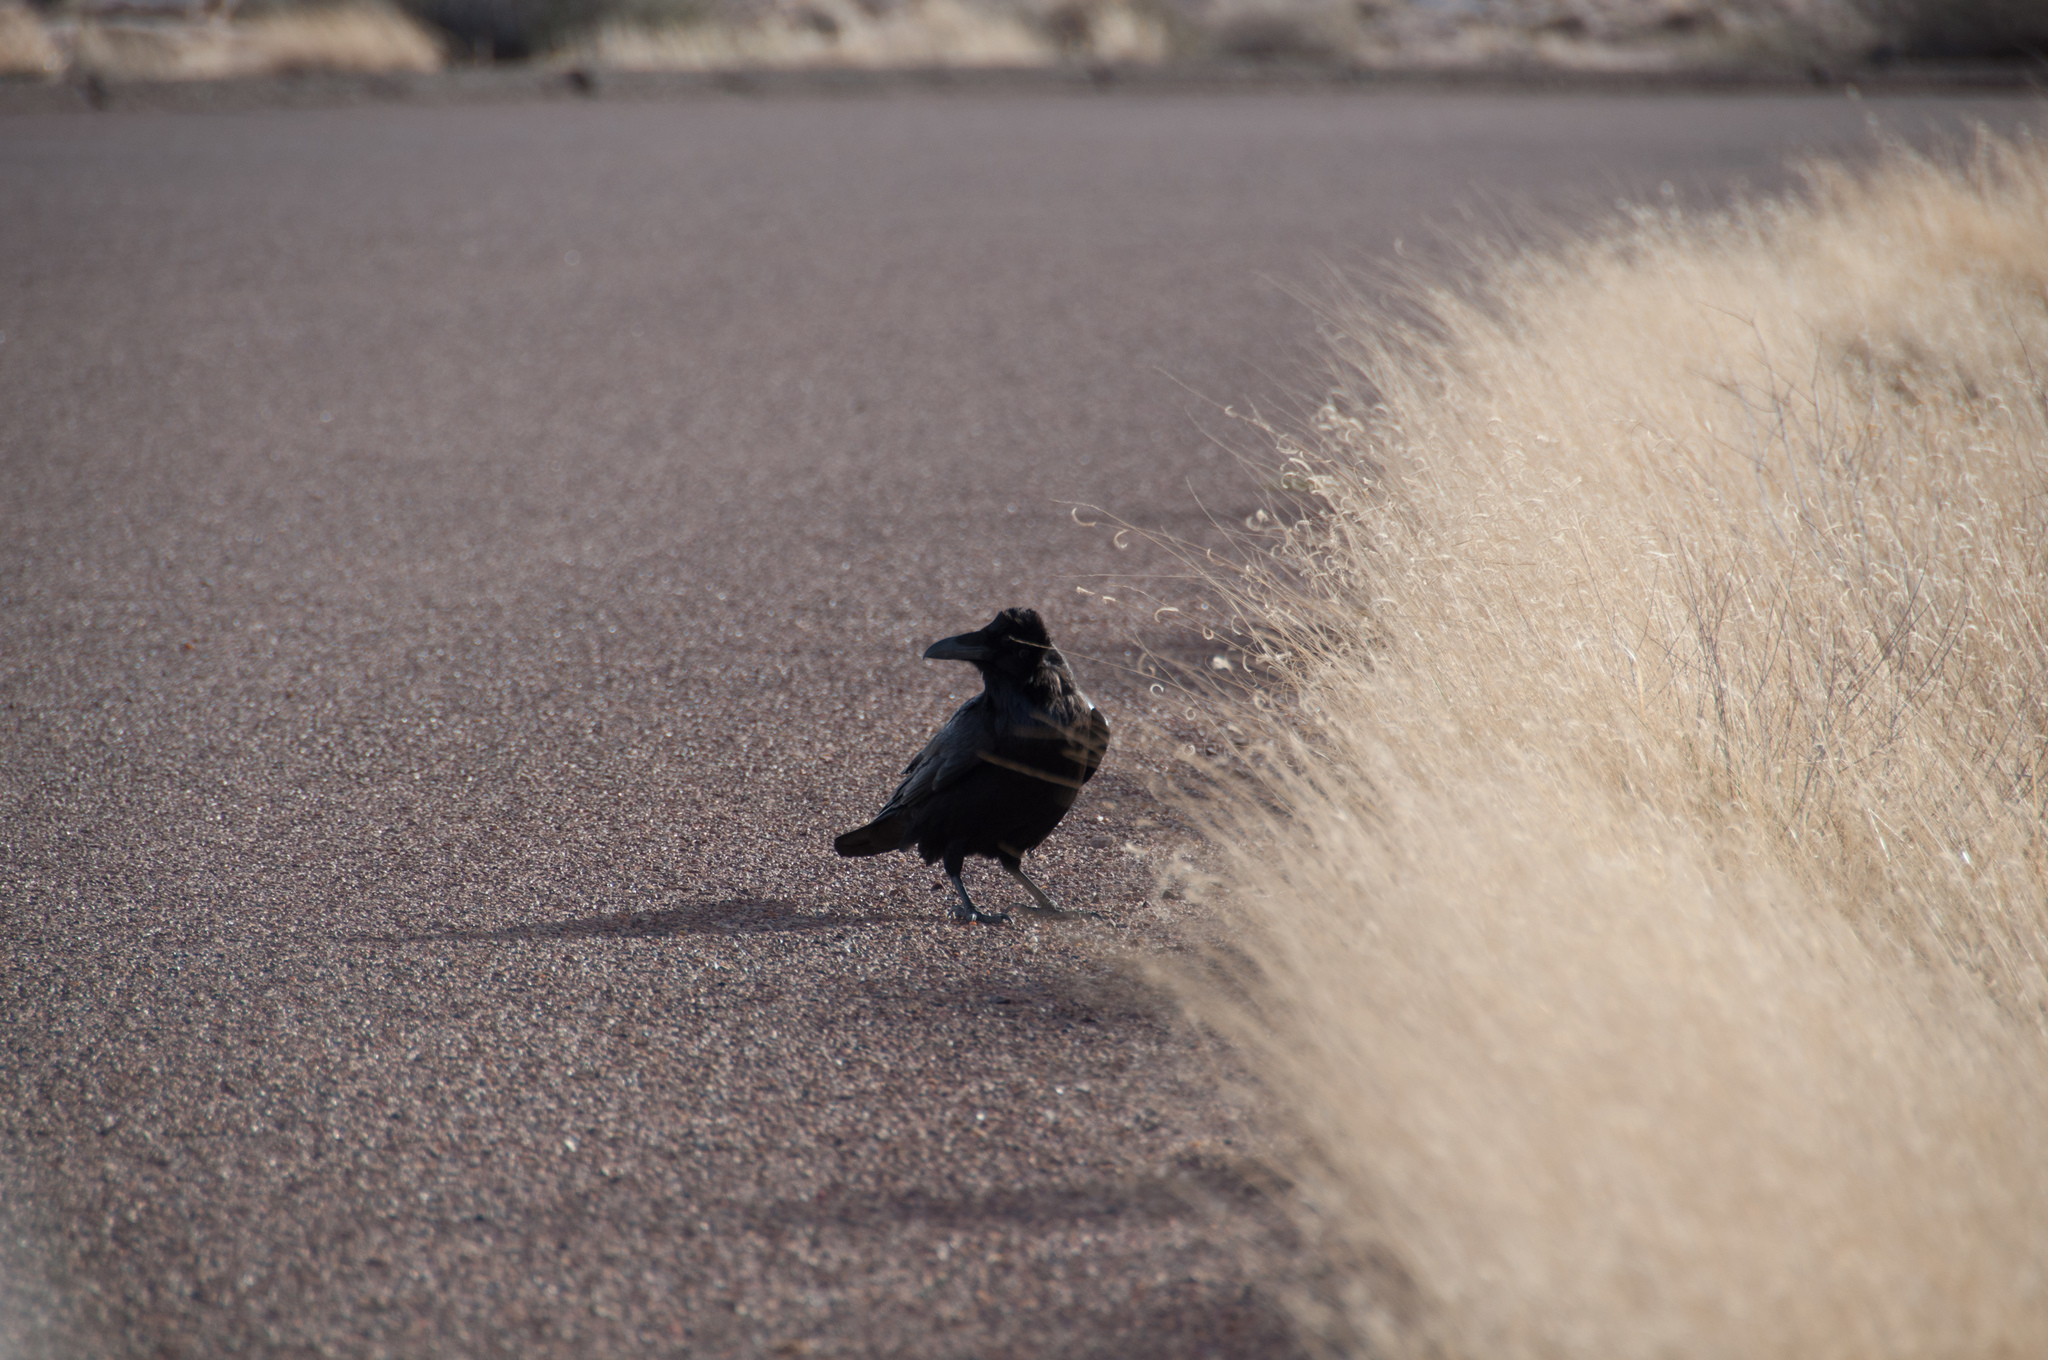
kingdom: Animalia
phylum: Chordata
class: Aves
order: Passeriformes
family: Corvidae
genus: Corvus
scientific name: Corvus corax
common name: Common raven
